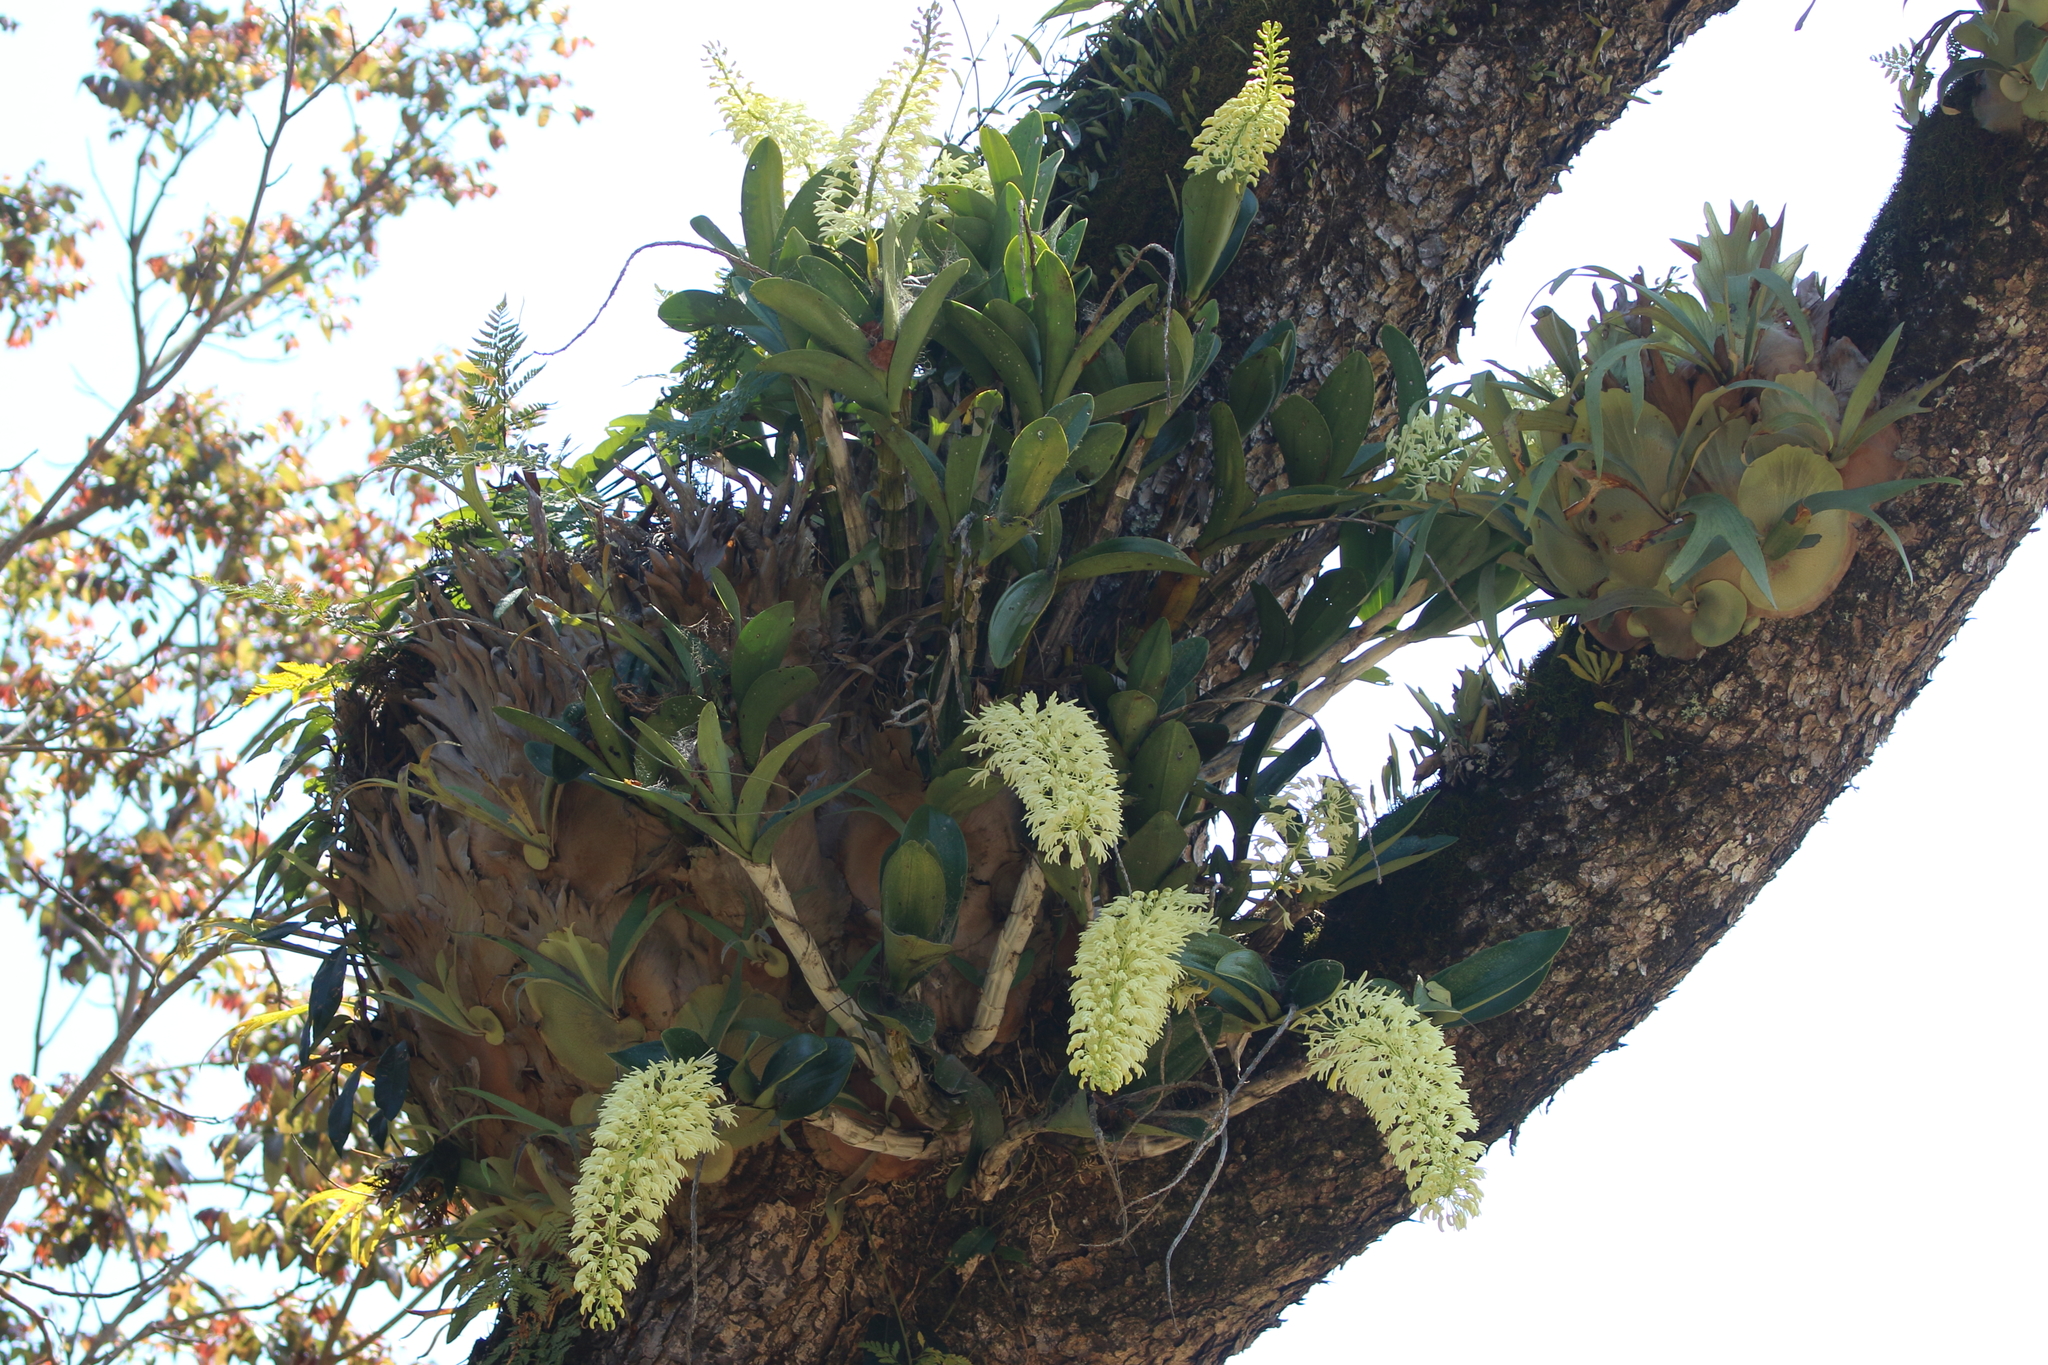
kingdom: Plantae
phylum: Tracheophyta
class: Liliopsida
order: Asparagales
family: Orchidaceae
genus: Dendrobium
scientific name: Dendrobium speciosum
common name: Rock-lily
